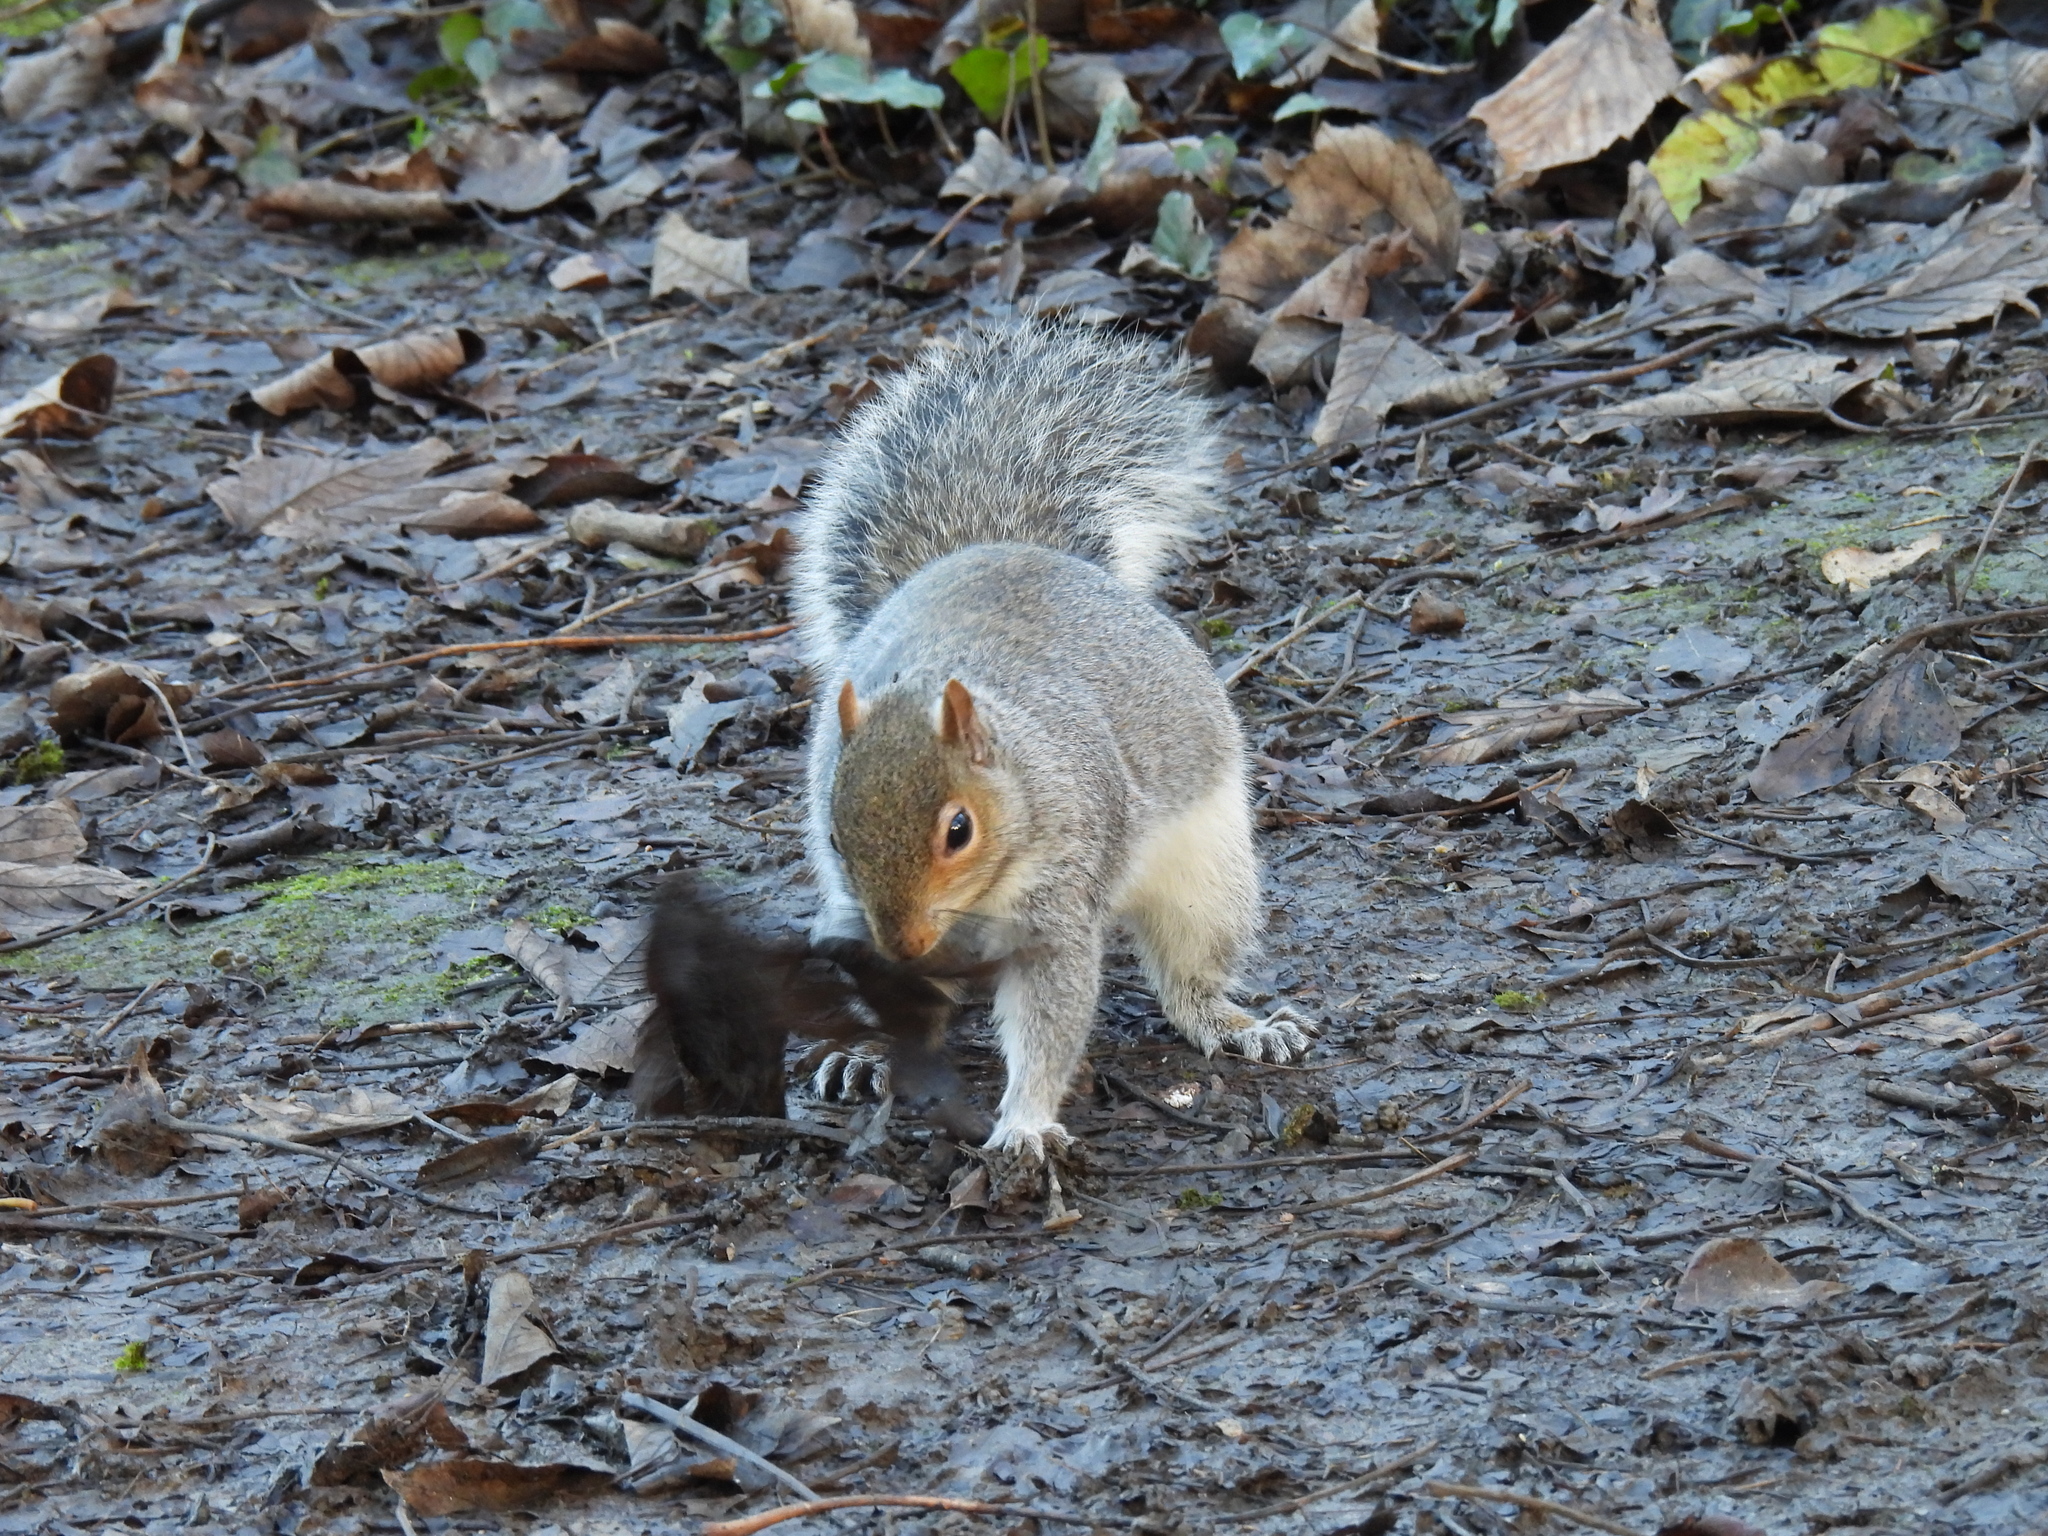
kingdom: Animalia
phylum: Chordata
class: Mammalia
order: Rodentia
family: Sciuridae
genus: Sciurus
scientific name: Sciurus carolinensis
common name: Eastern gray squirrel
